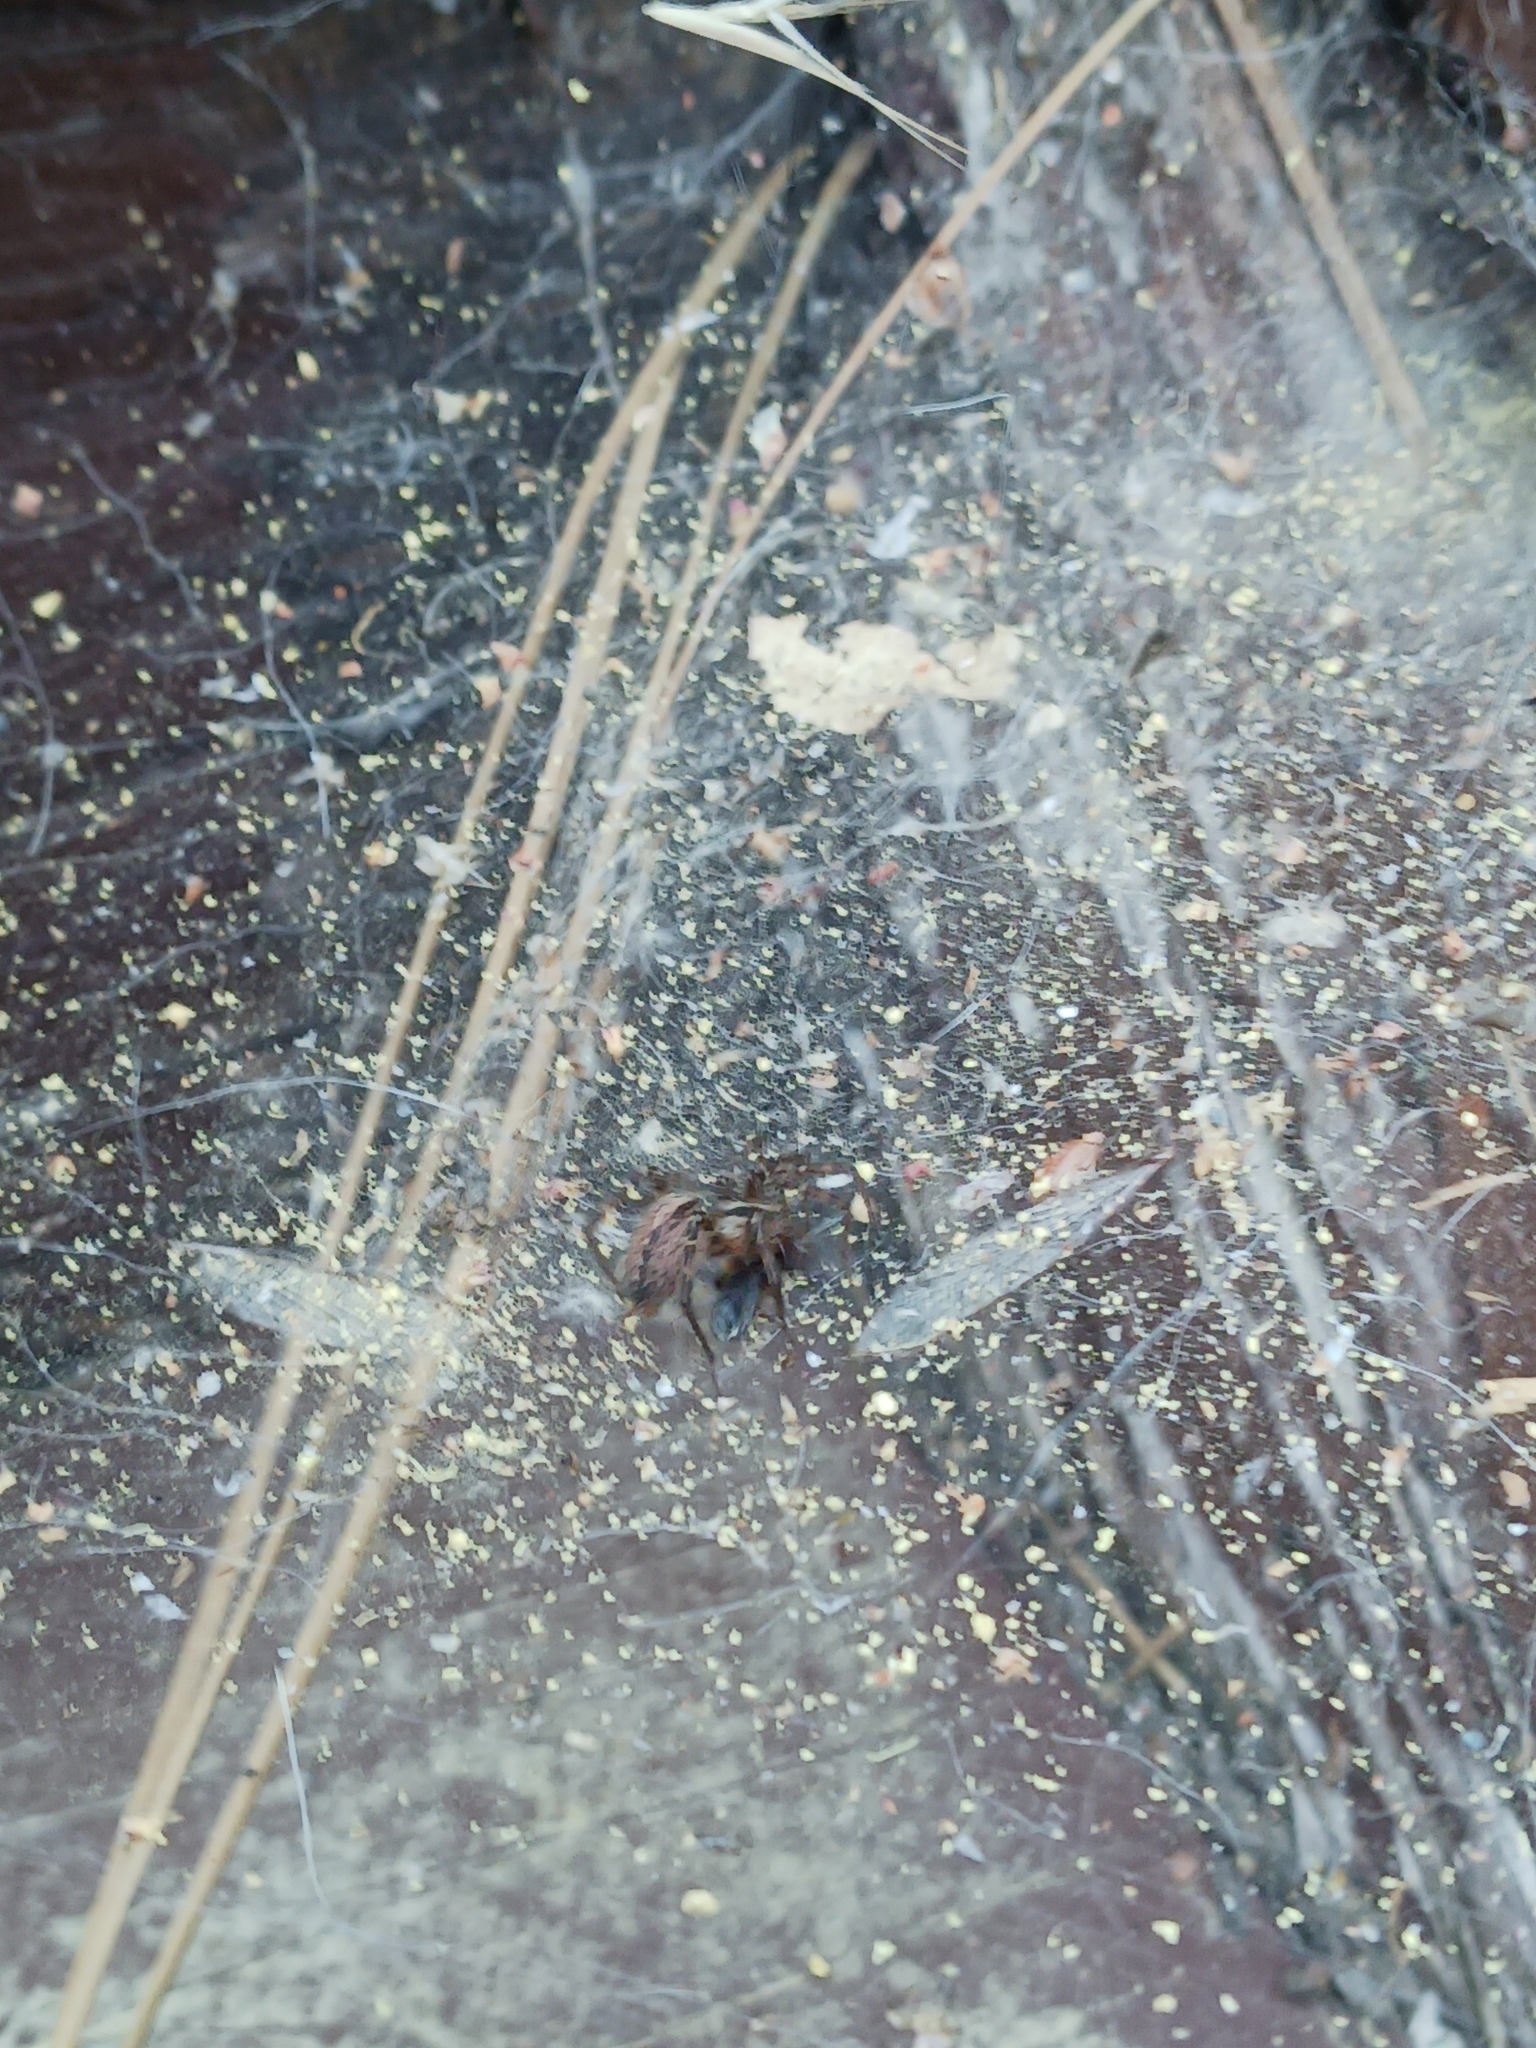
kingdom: Animalia
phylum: Arthropoda
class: Arachnida
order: Araneae
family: Agelenidae
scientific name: Agelenidae
